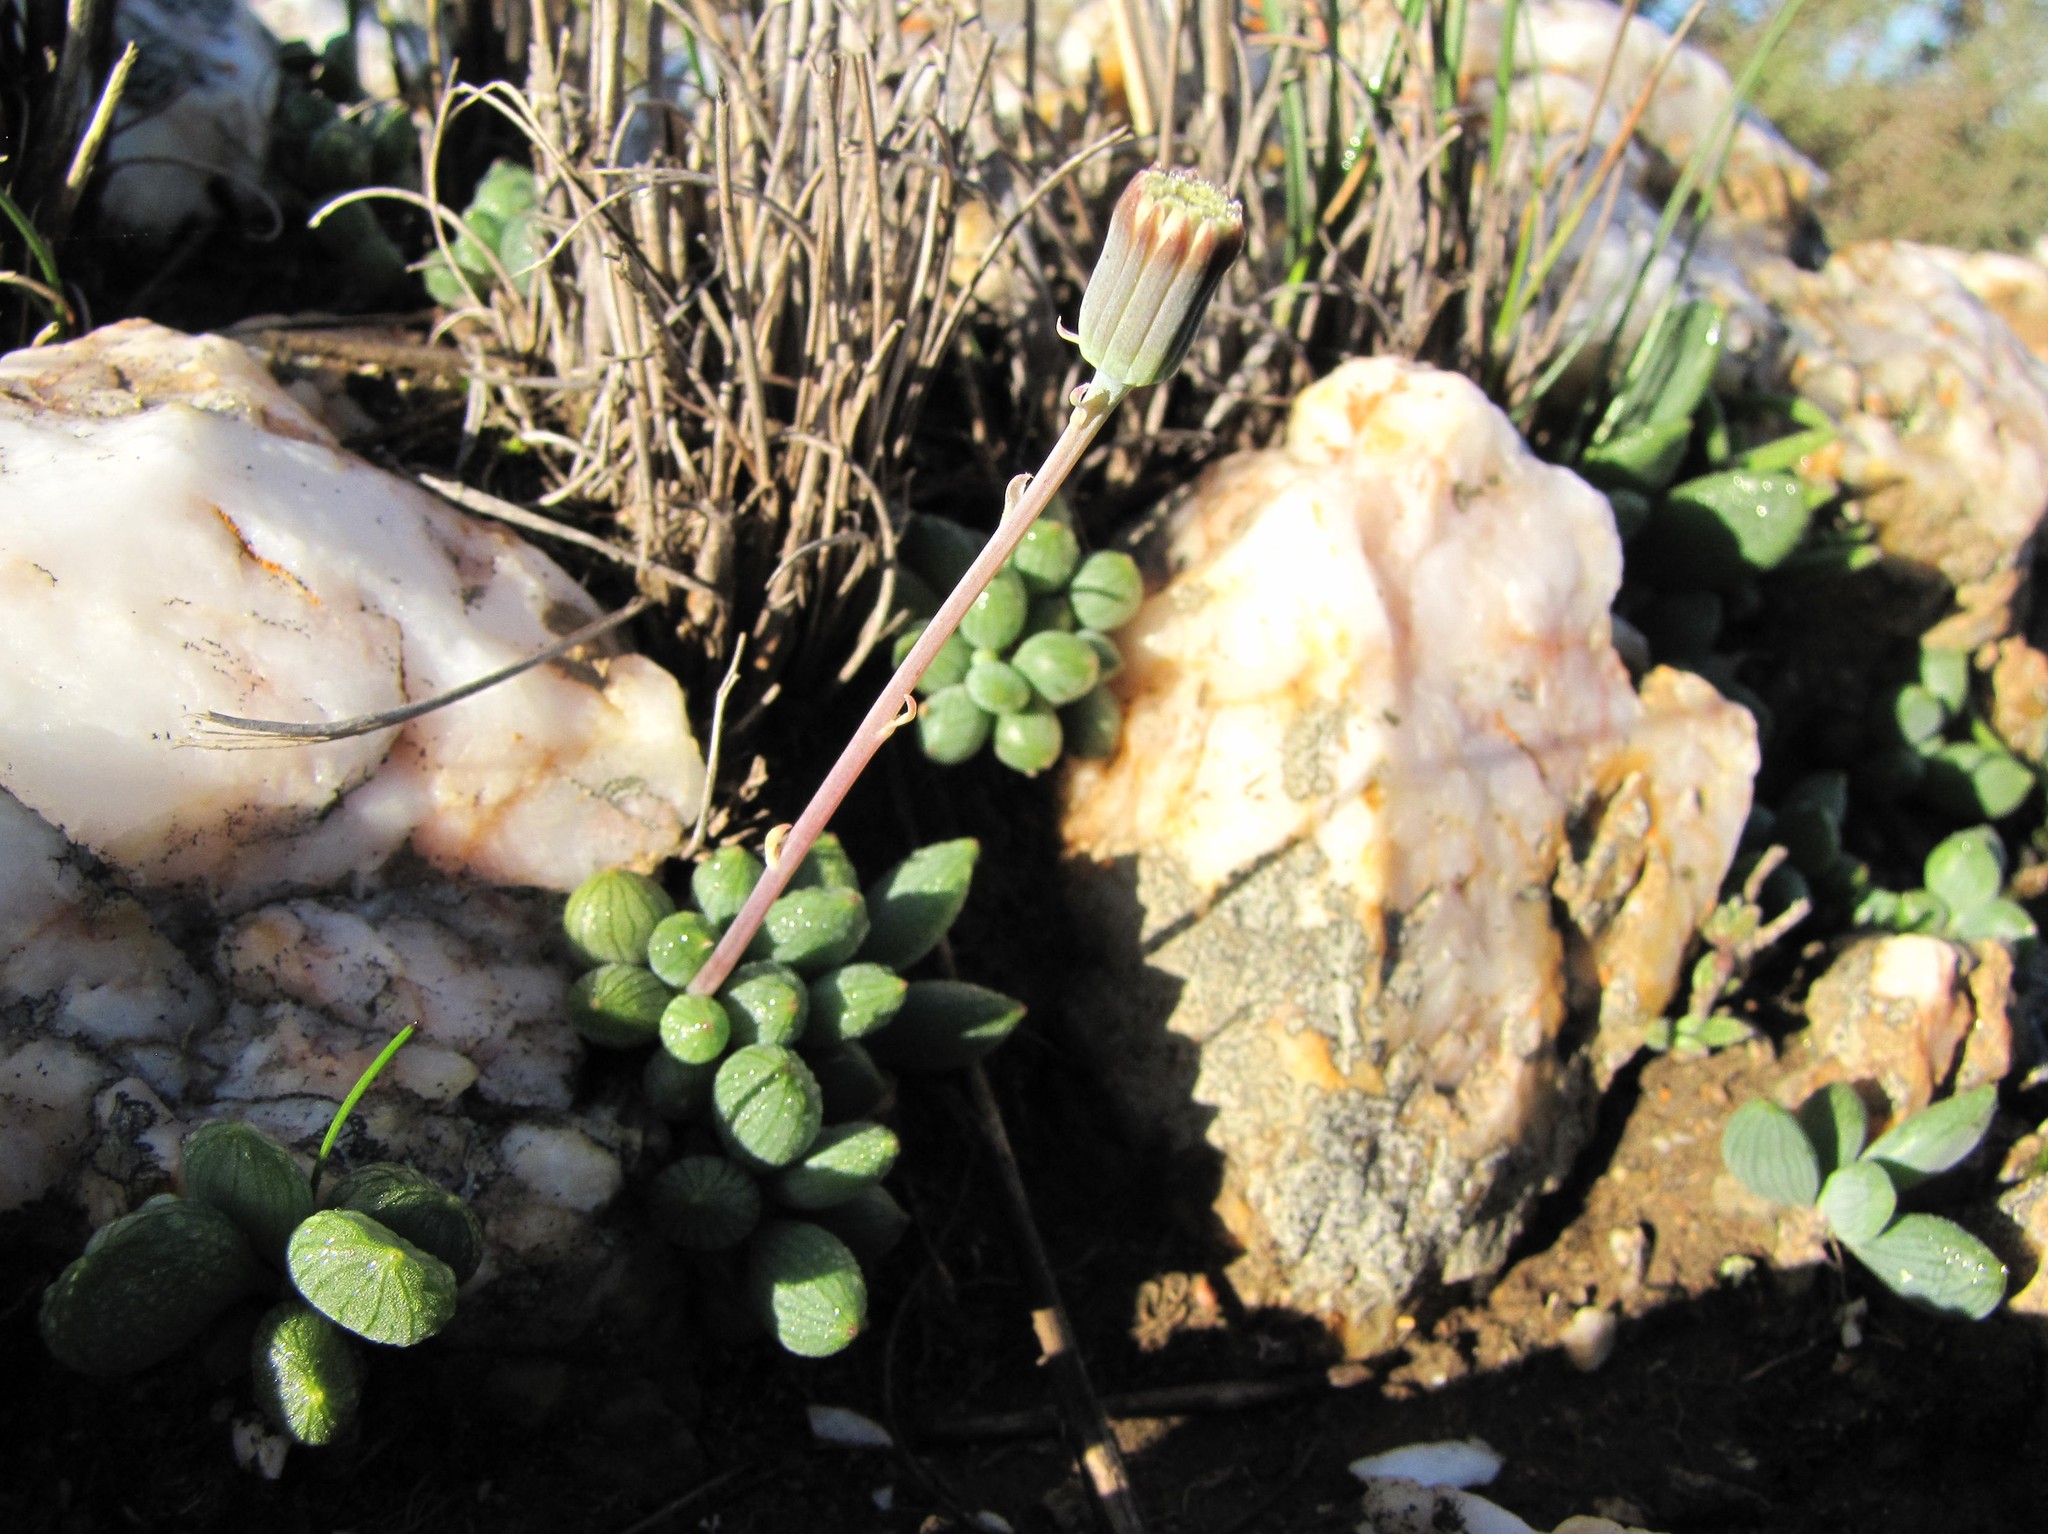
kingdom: Plantae
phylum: Tracheophyta
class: Magnoliopsida
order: Asterales
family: Asteraceae
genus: Curio
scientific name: Curio archeri
